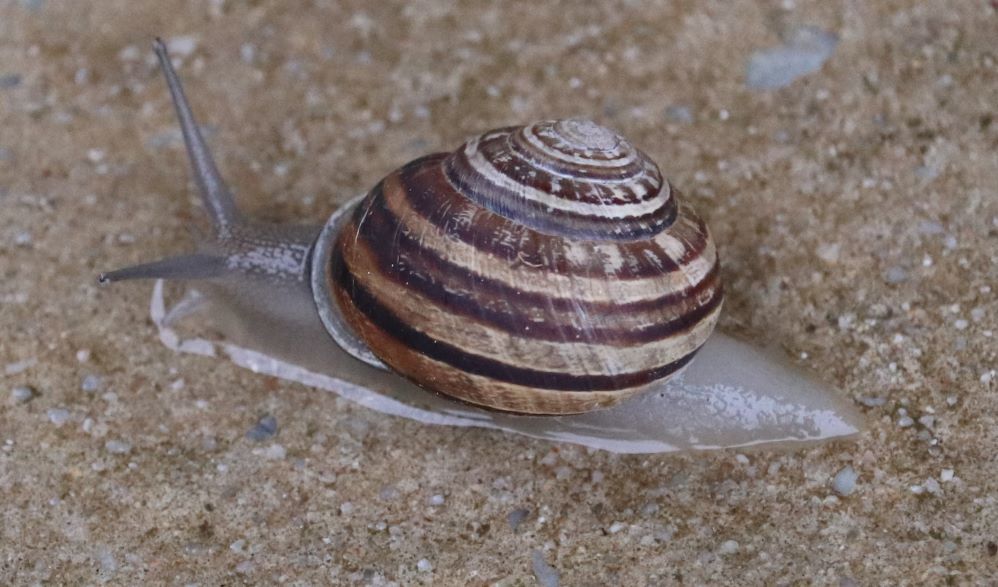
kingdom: Animalia
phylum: Mollusca
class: Gastropoda
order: Stylommatophora
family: Helicidae
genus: Eobania
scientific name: Eobania vermiculata
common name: Chocolateband snail
